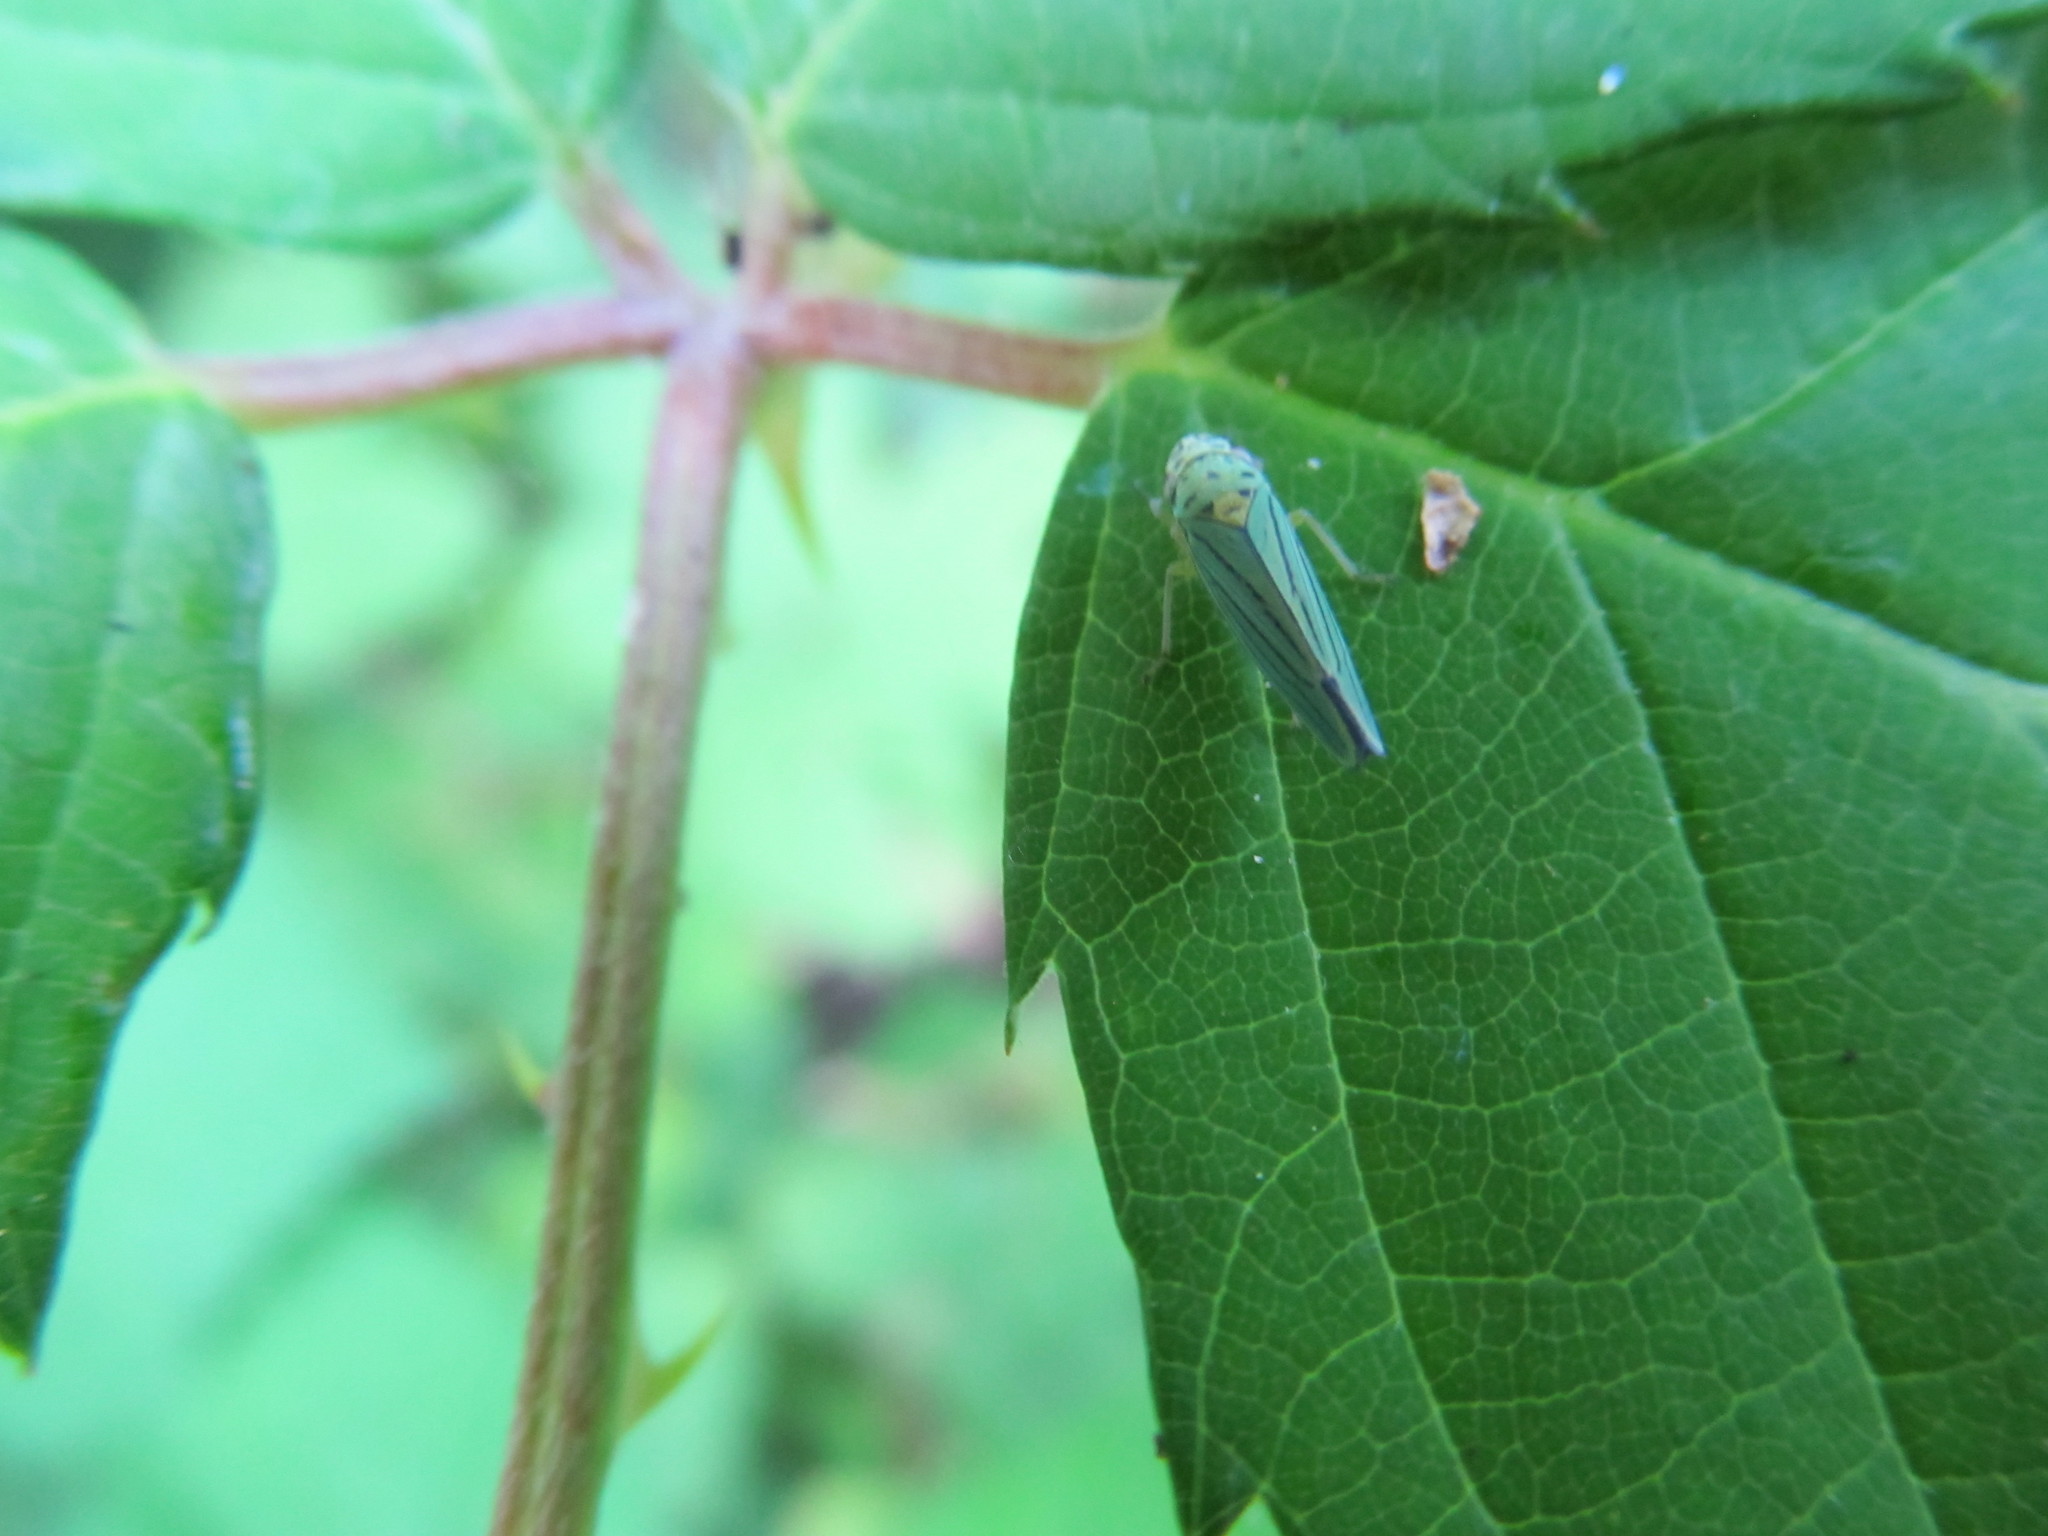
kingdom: Animalia
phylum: Arthropoda
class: Insecta
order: Hemiptera
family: Cicadellidae
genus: Graphocephala
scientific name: Graphocephala atropunctata
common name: Blue-green sharpshooter
